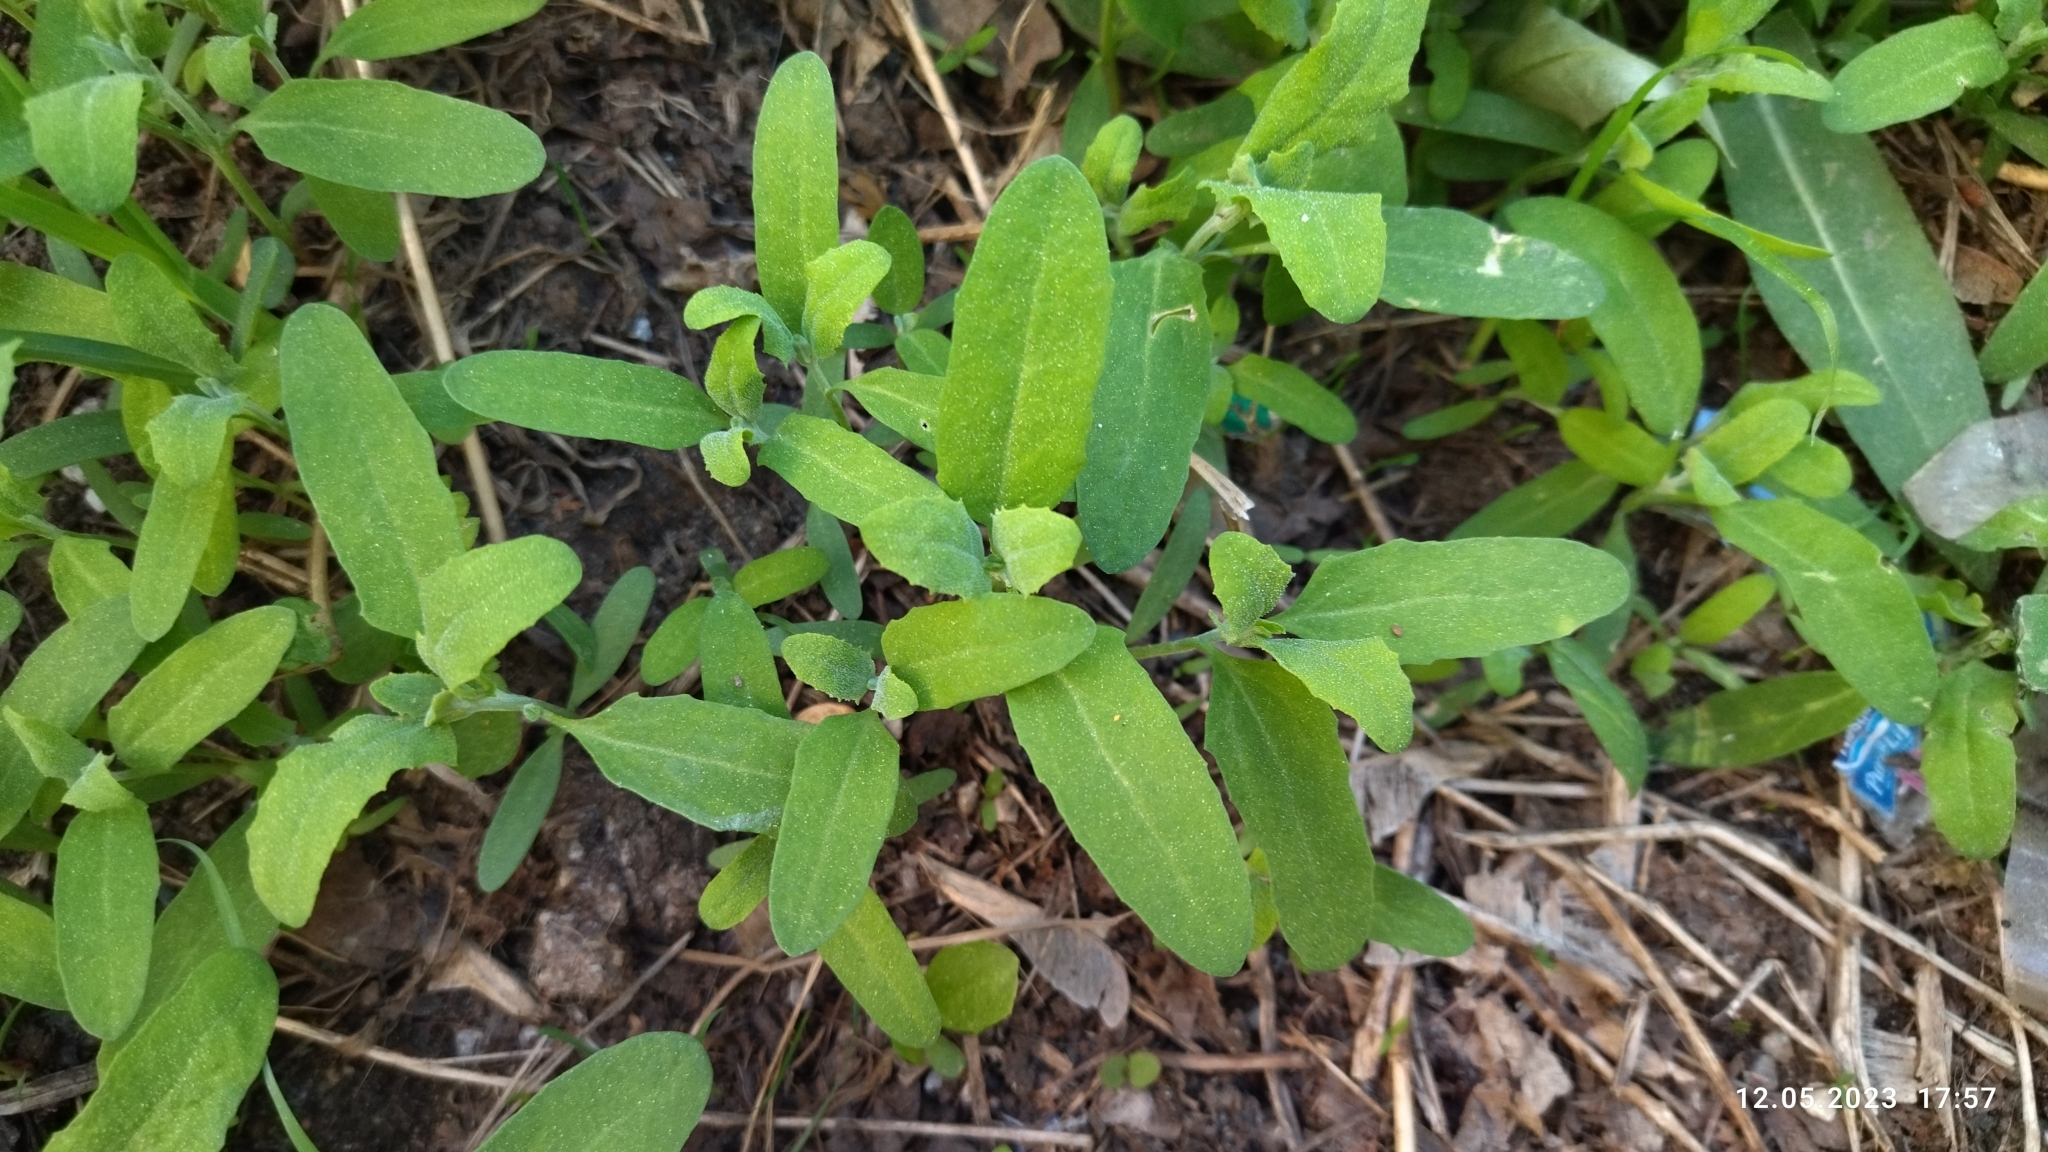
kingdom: Plantae
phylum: Tracheophyta
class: Magnoliopsida
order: Caryophyllales
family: Amaranthaceae
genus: Atriplex
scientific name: Atriplex patula
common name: Common orache
